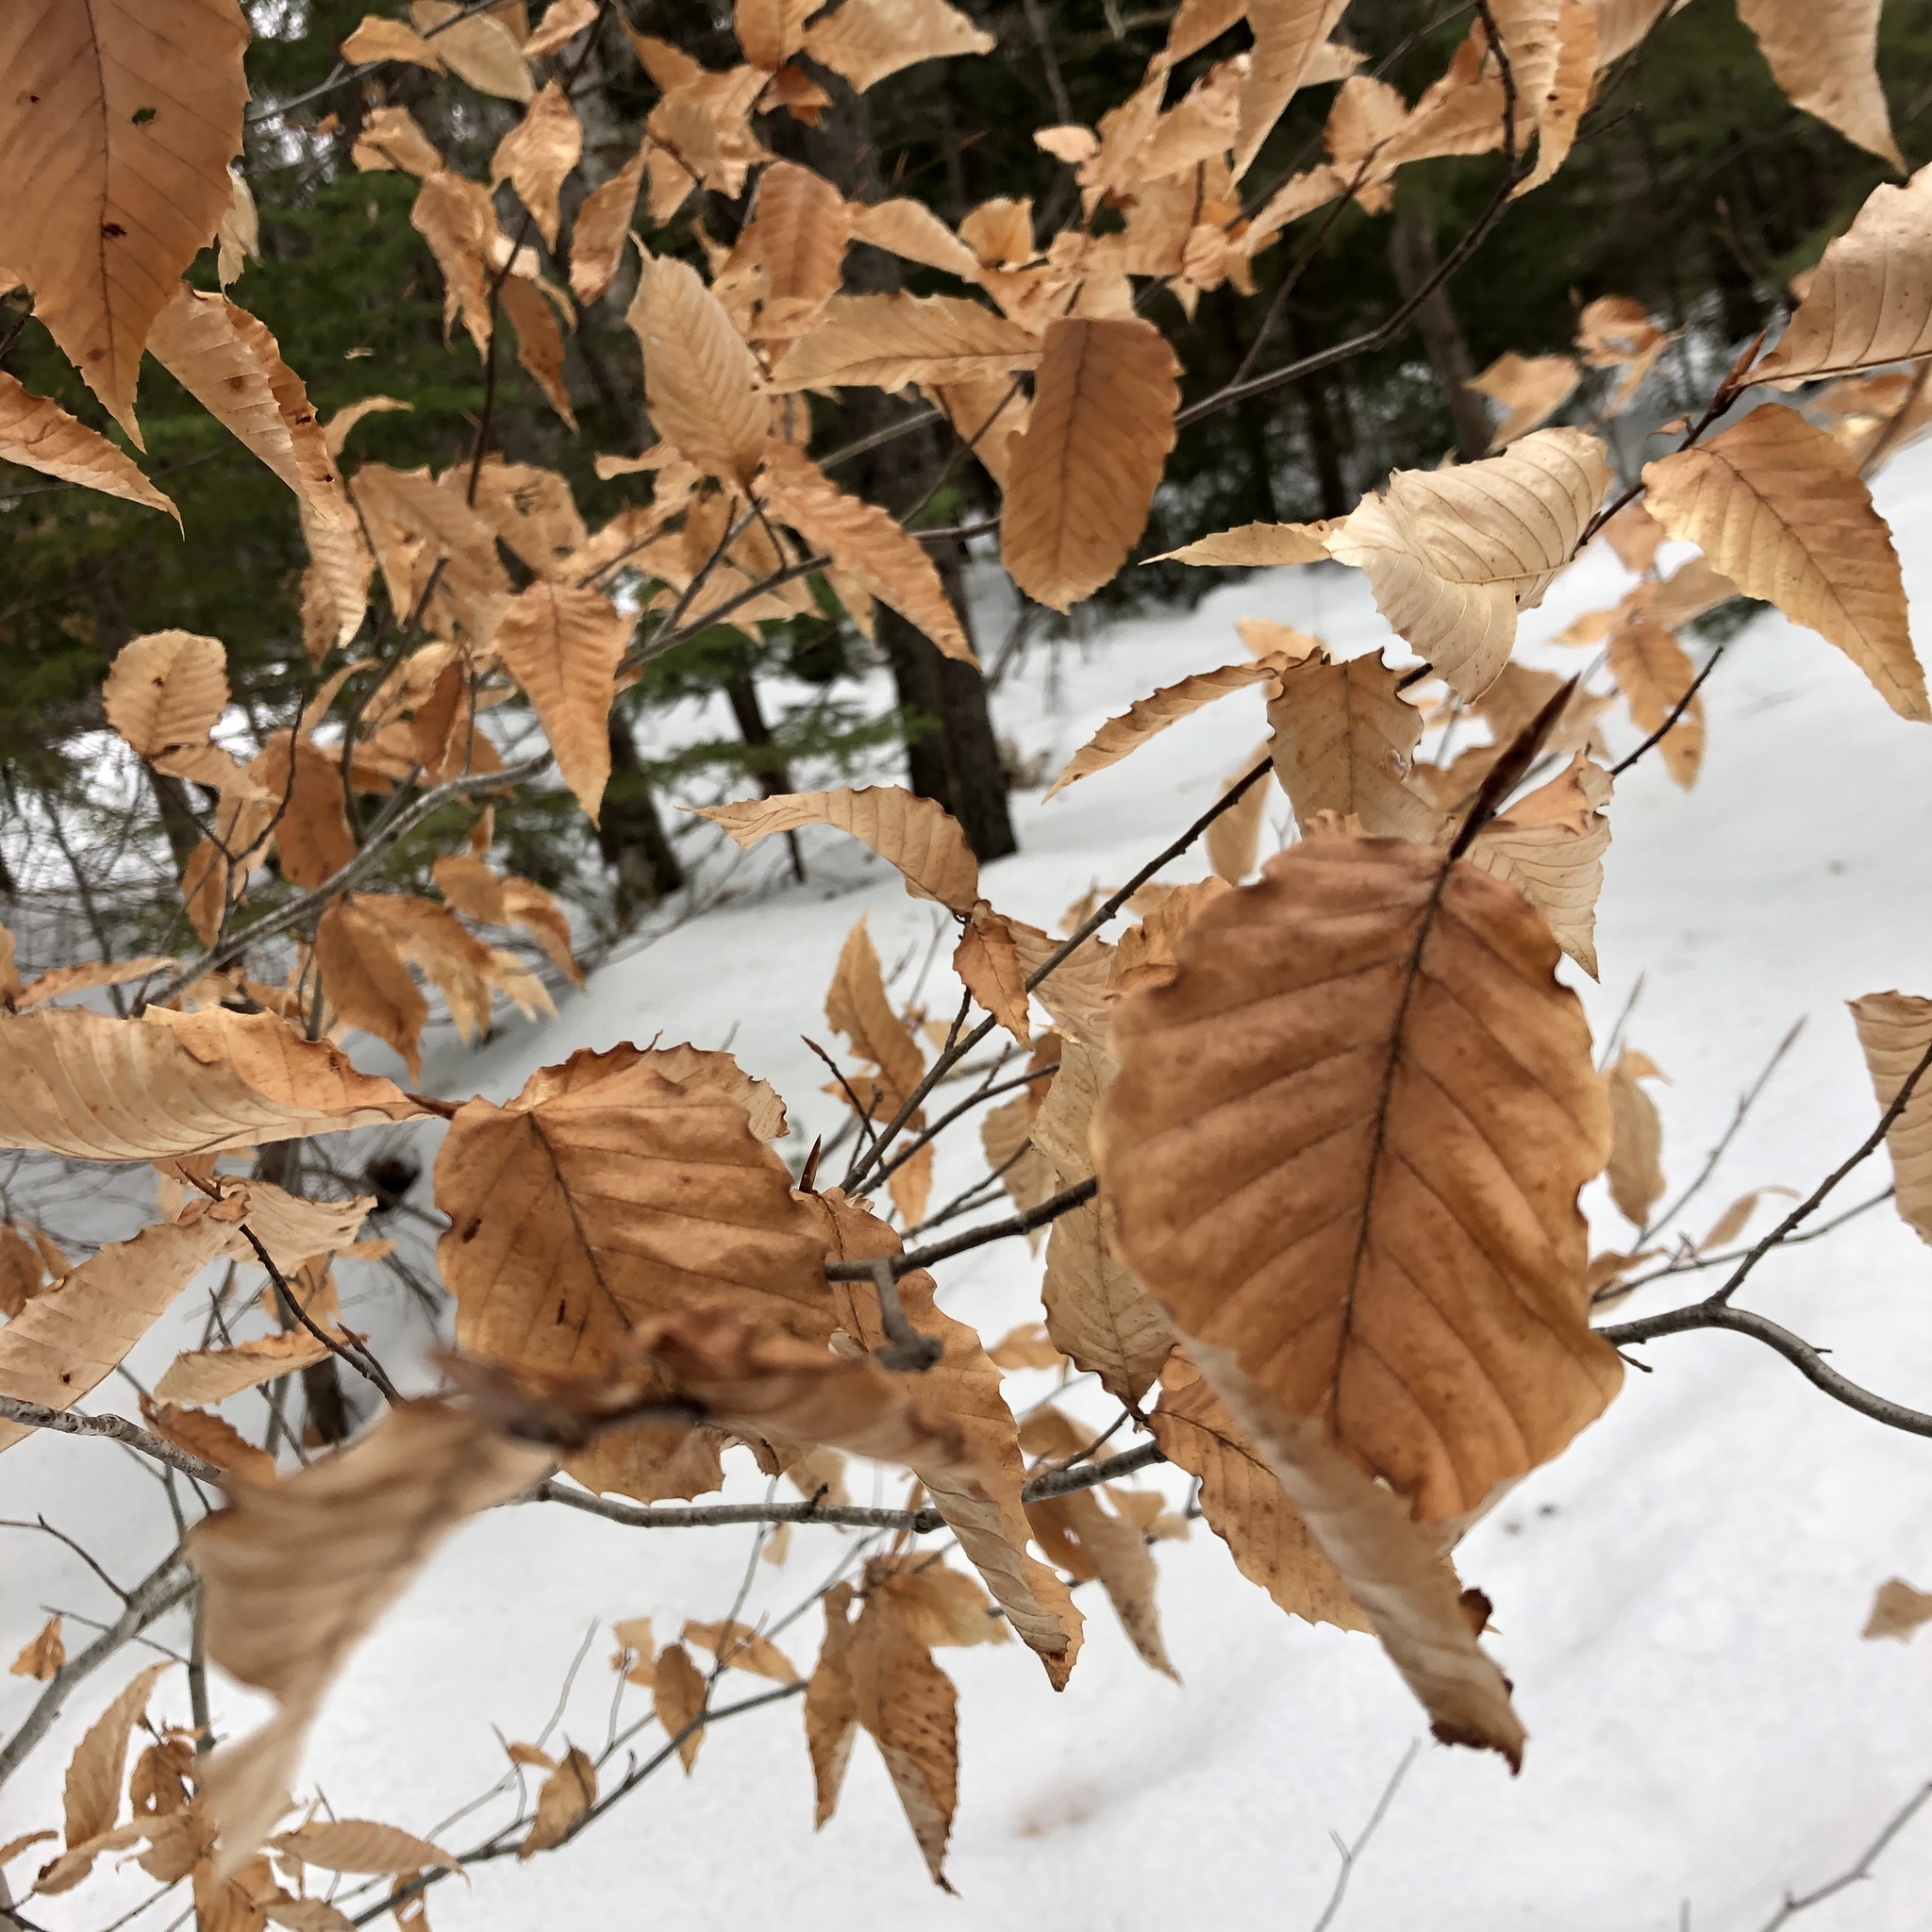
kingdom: Plantae
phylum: Tracheophyta
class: Magnoliopsida
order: Fagales
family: Fagaceae
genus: Fagus
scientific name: Fagus grandifolia
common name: American beech
